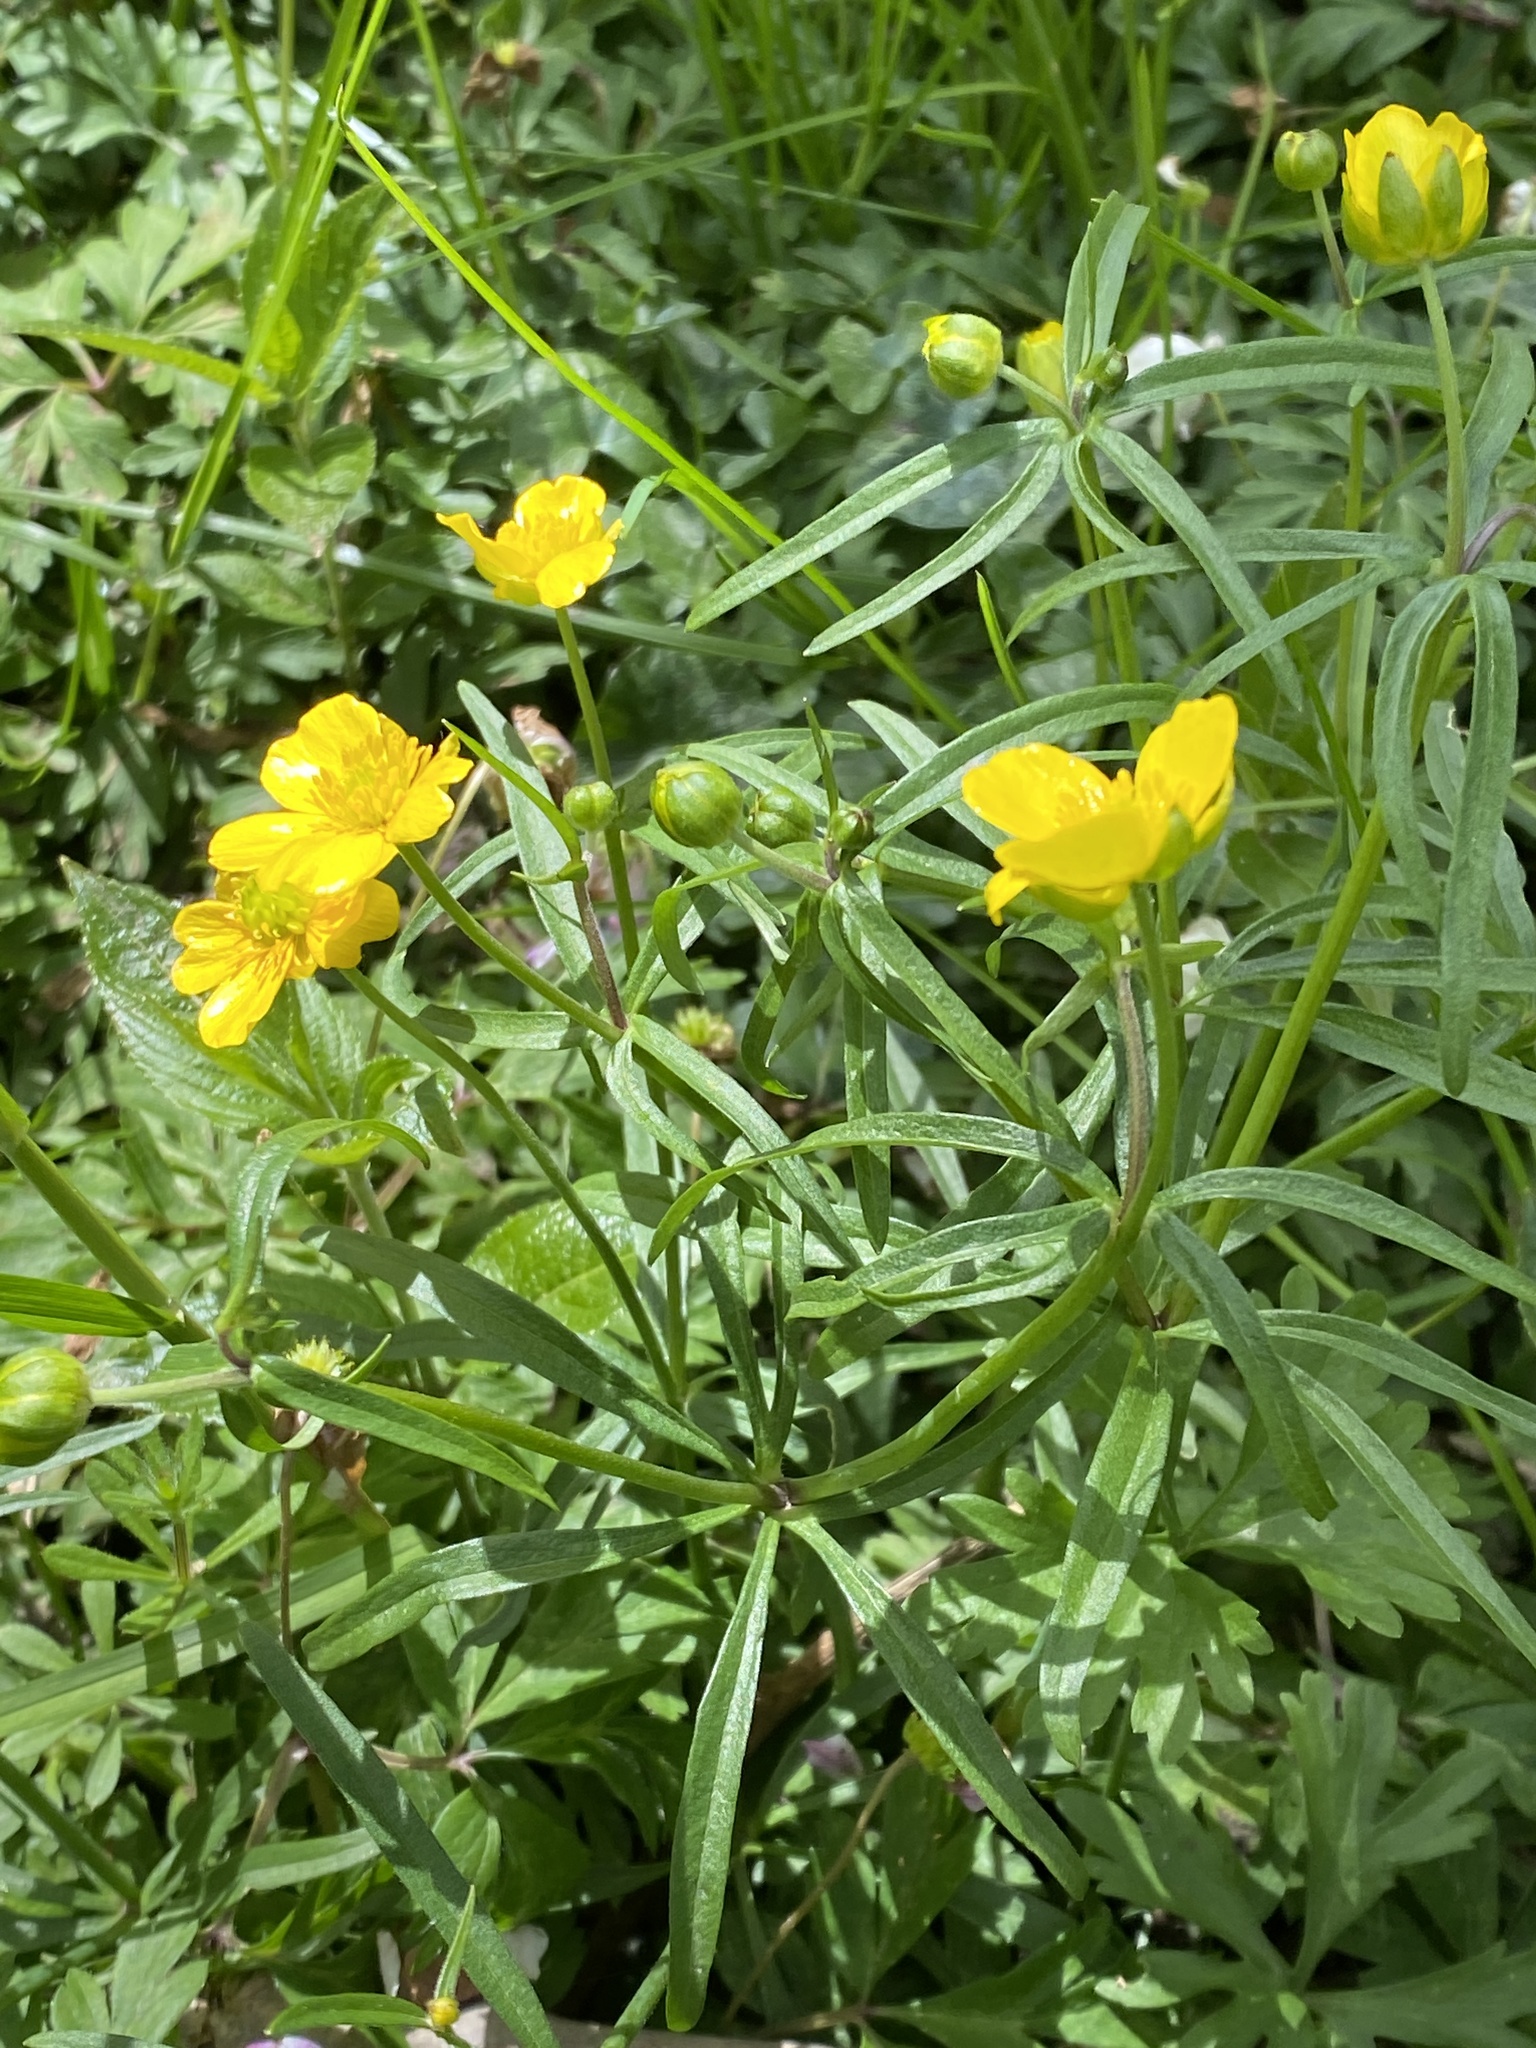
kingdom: Plantae
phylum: Tracheophyta
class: Magnoliopsida
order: Ranunculales
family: Ranunculaceae
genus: Ranunculus
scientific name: Ranunculus auricomus
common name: Goldilocks buttercup
